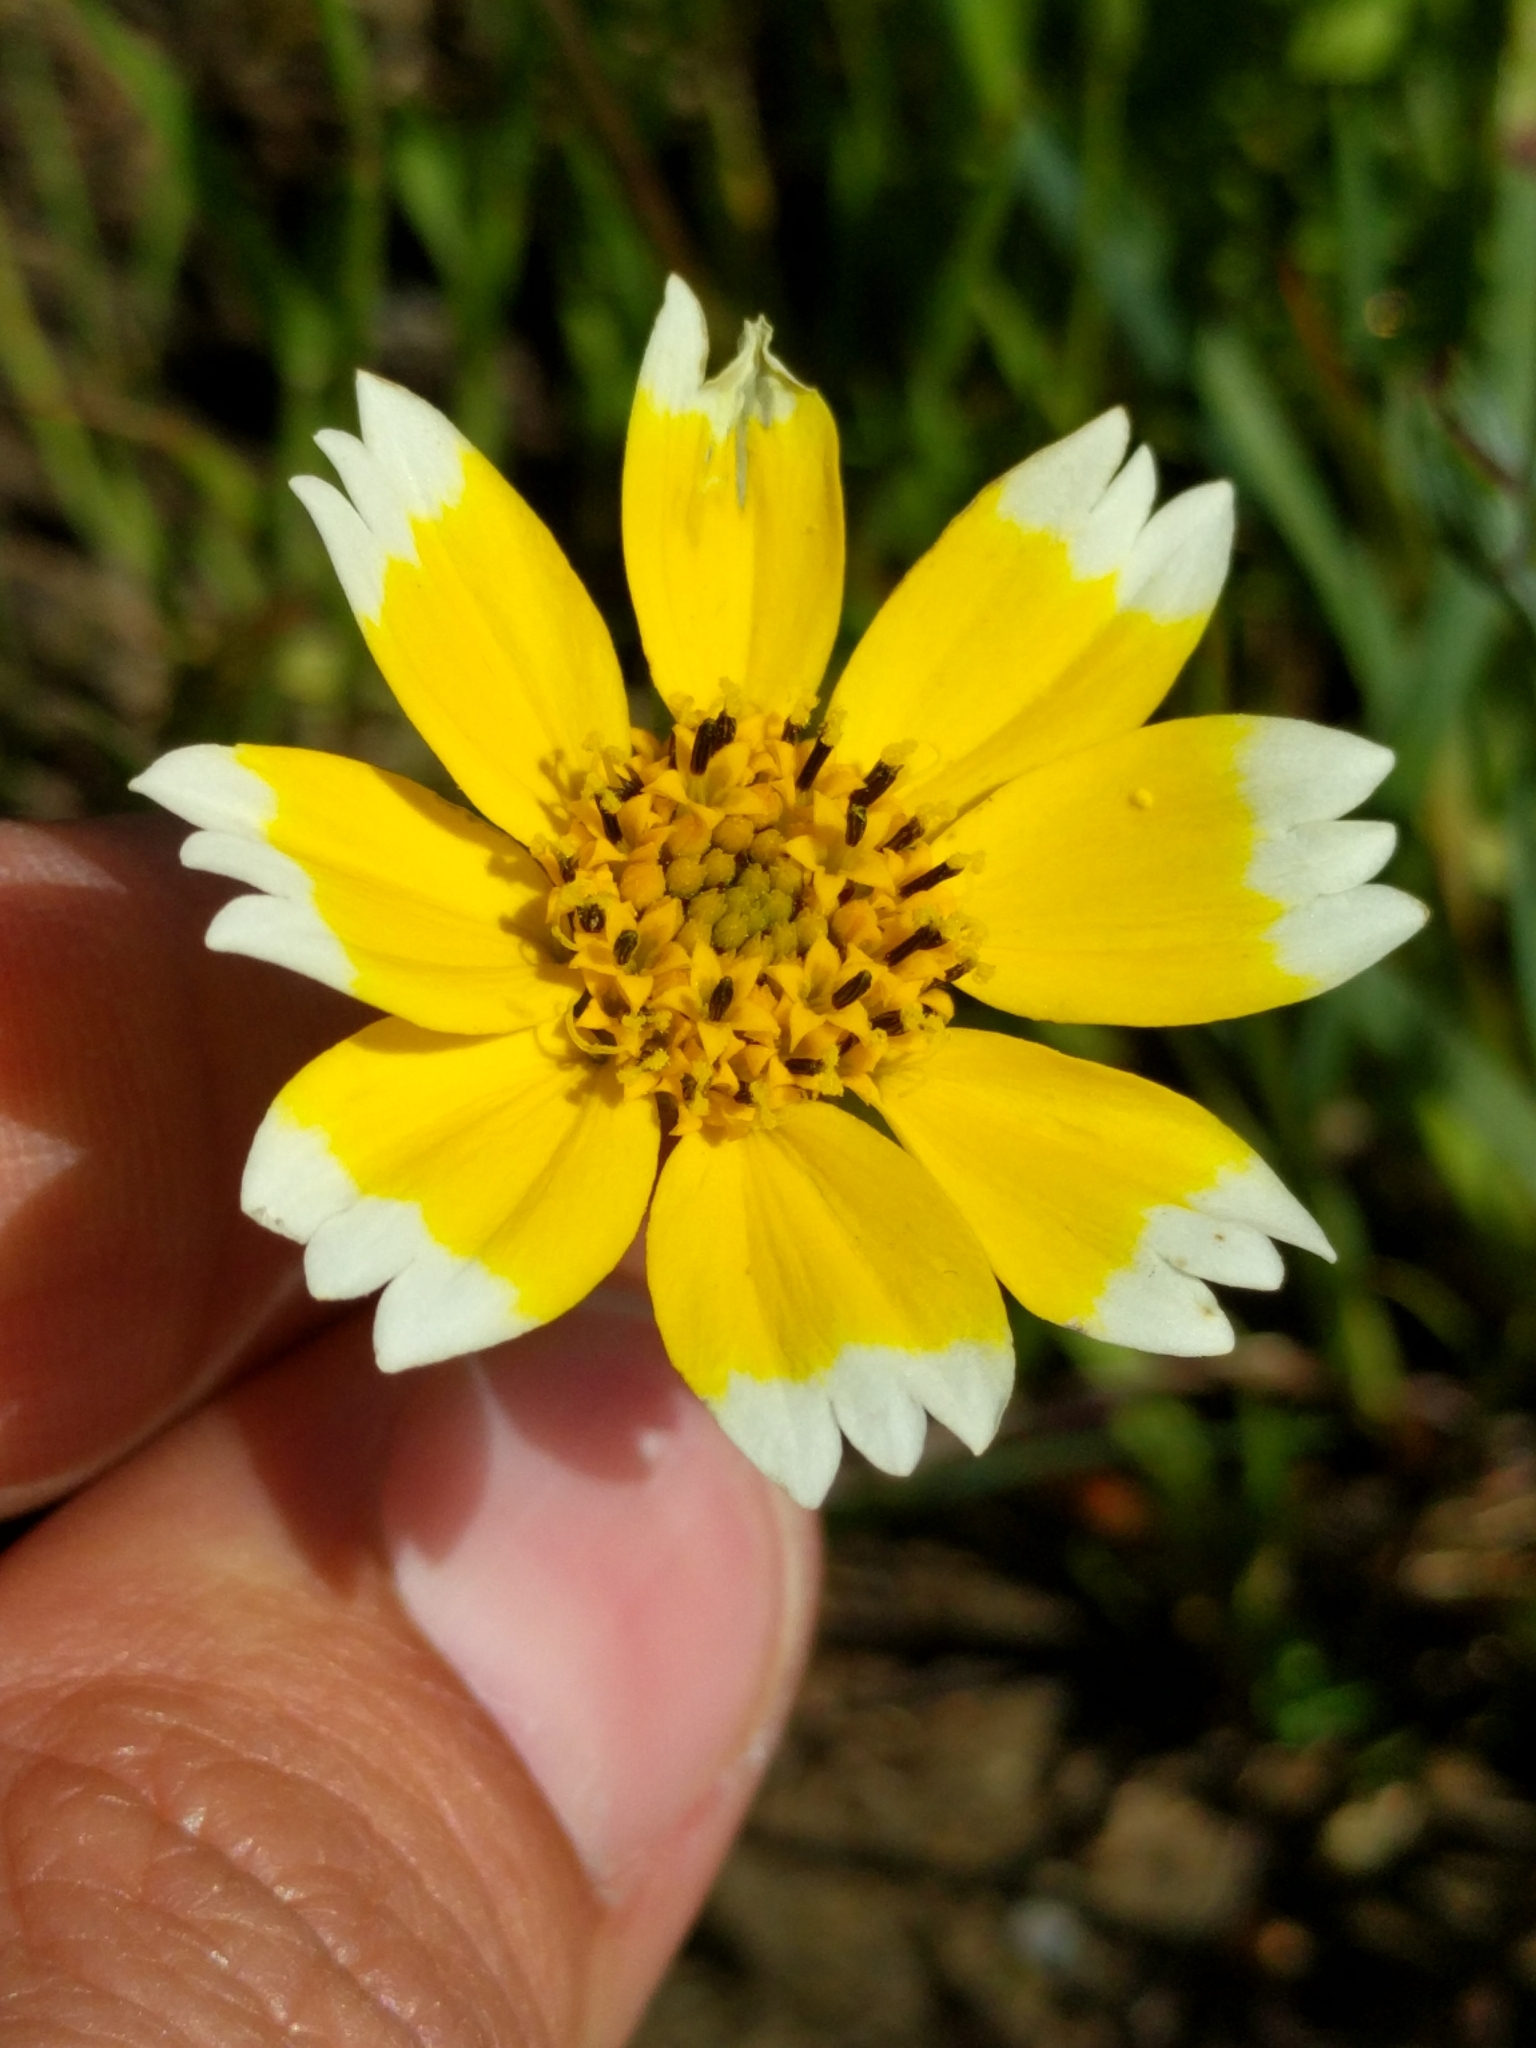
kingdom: Plantae
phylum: Tracheophyta
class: Magnoliopsida
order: Asterales
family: Asteraceae
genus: Layia
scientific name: Layia chrysanthemoides
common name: Smooth layia
